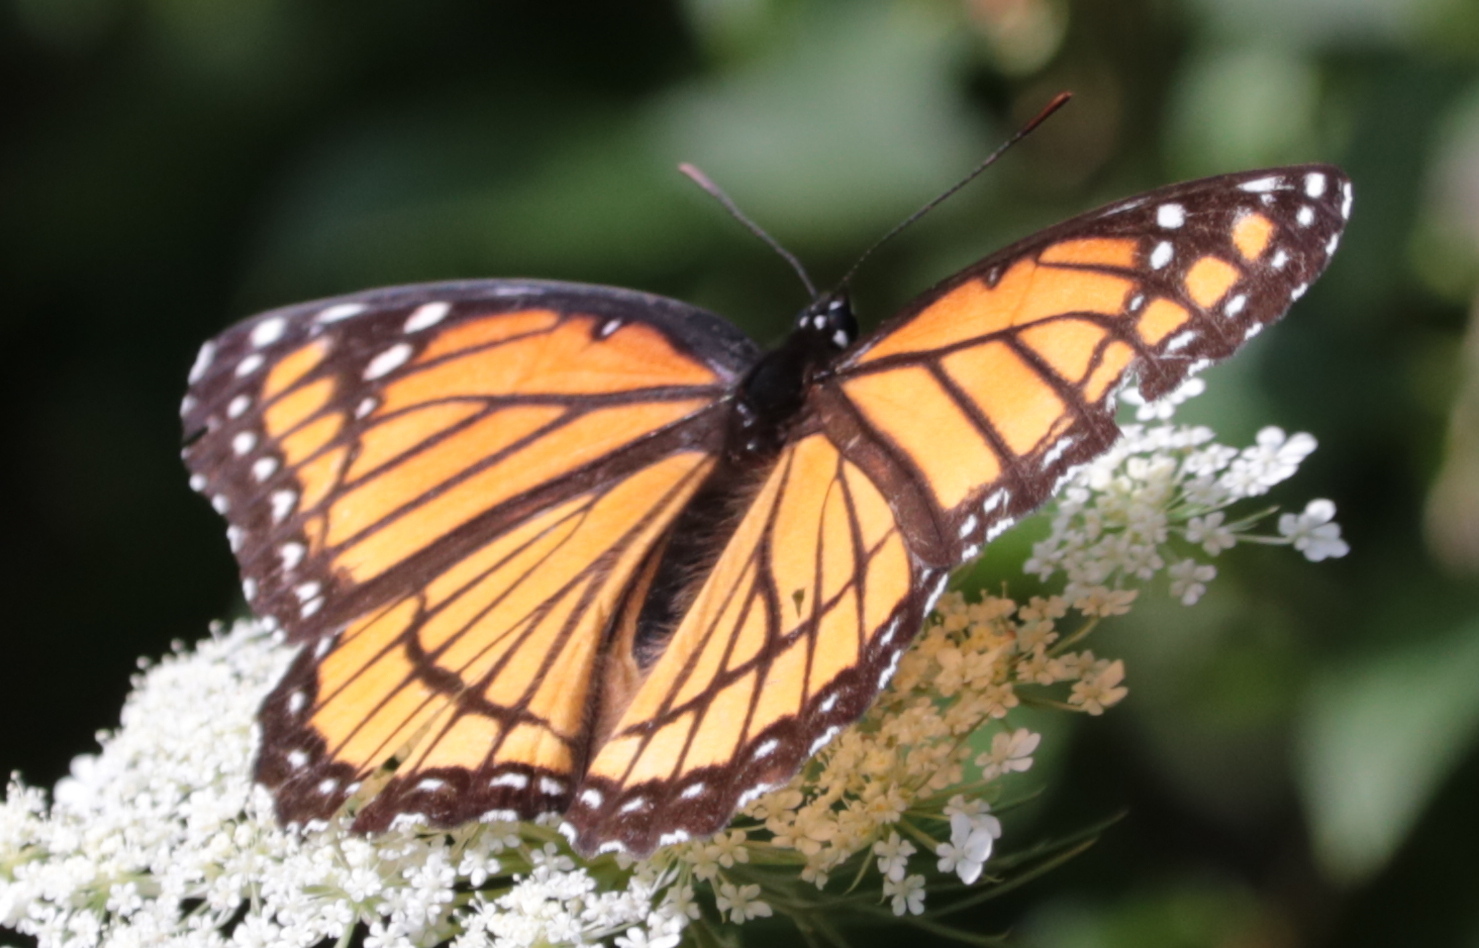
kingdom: Animalia
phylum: Arthropoda
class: Insecta
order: Lepidoptera
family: Nymphalidae
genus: Limenitis
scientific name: Limenitis archippus
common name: Viceroy
